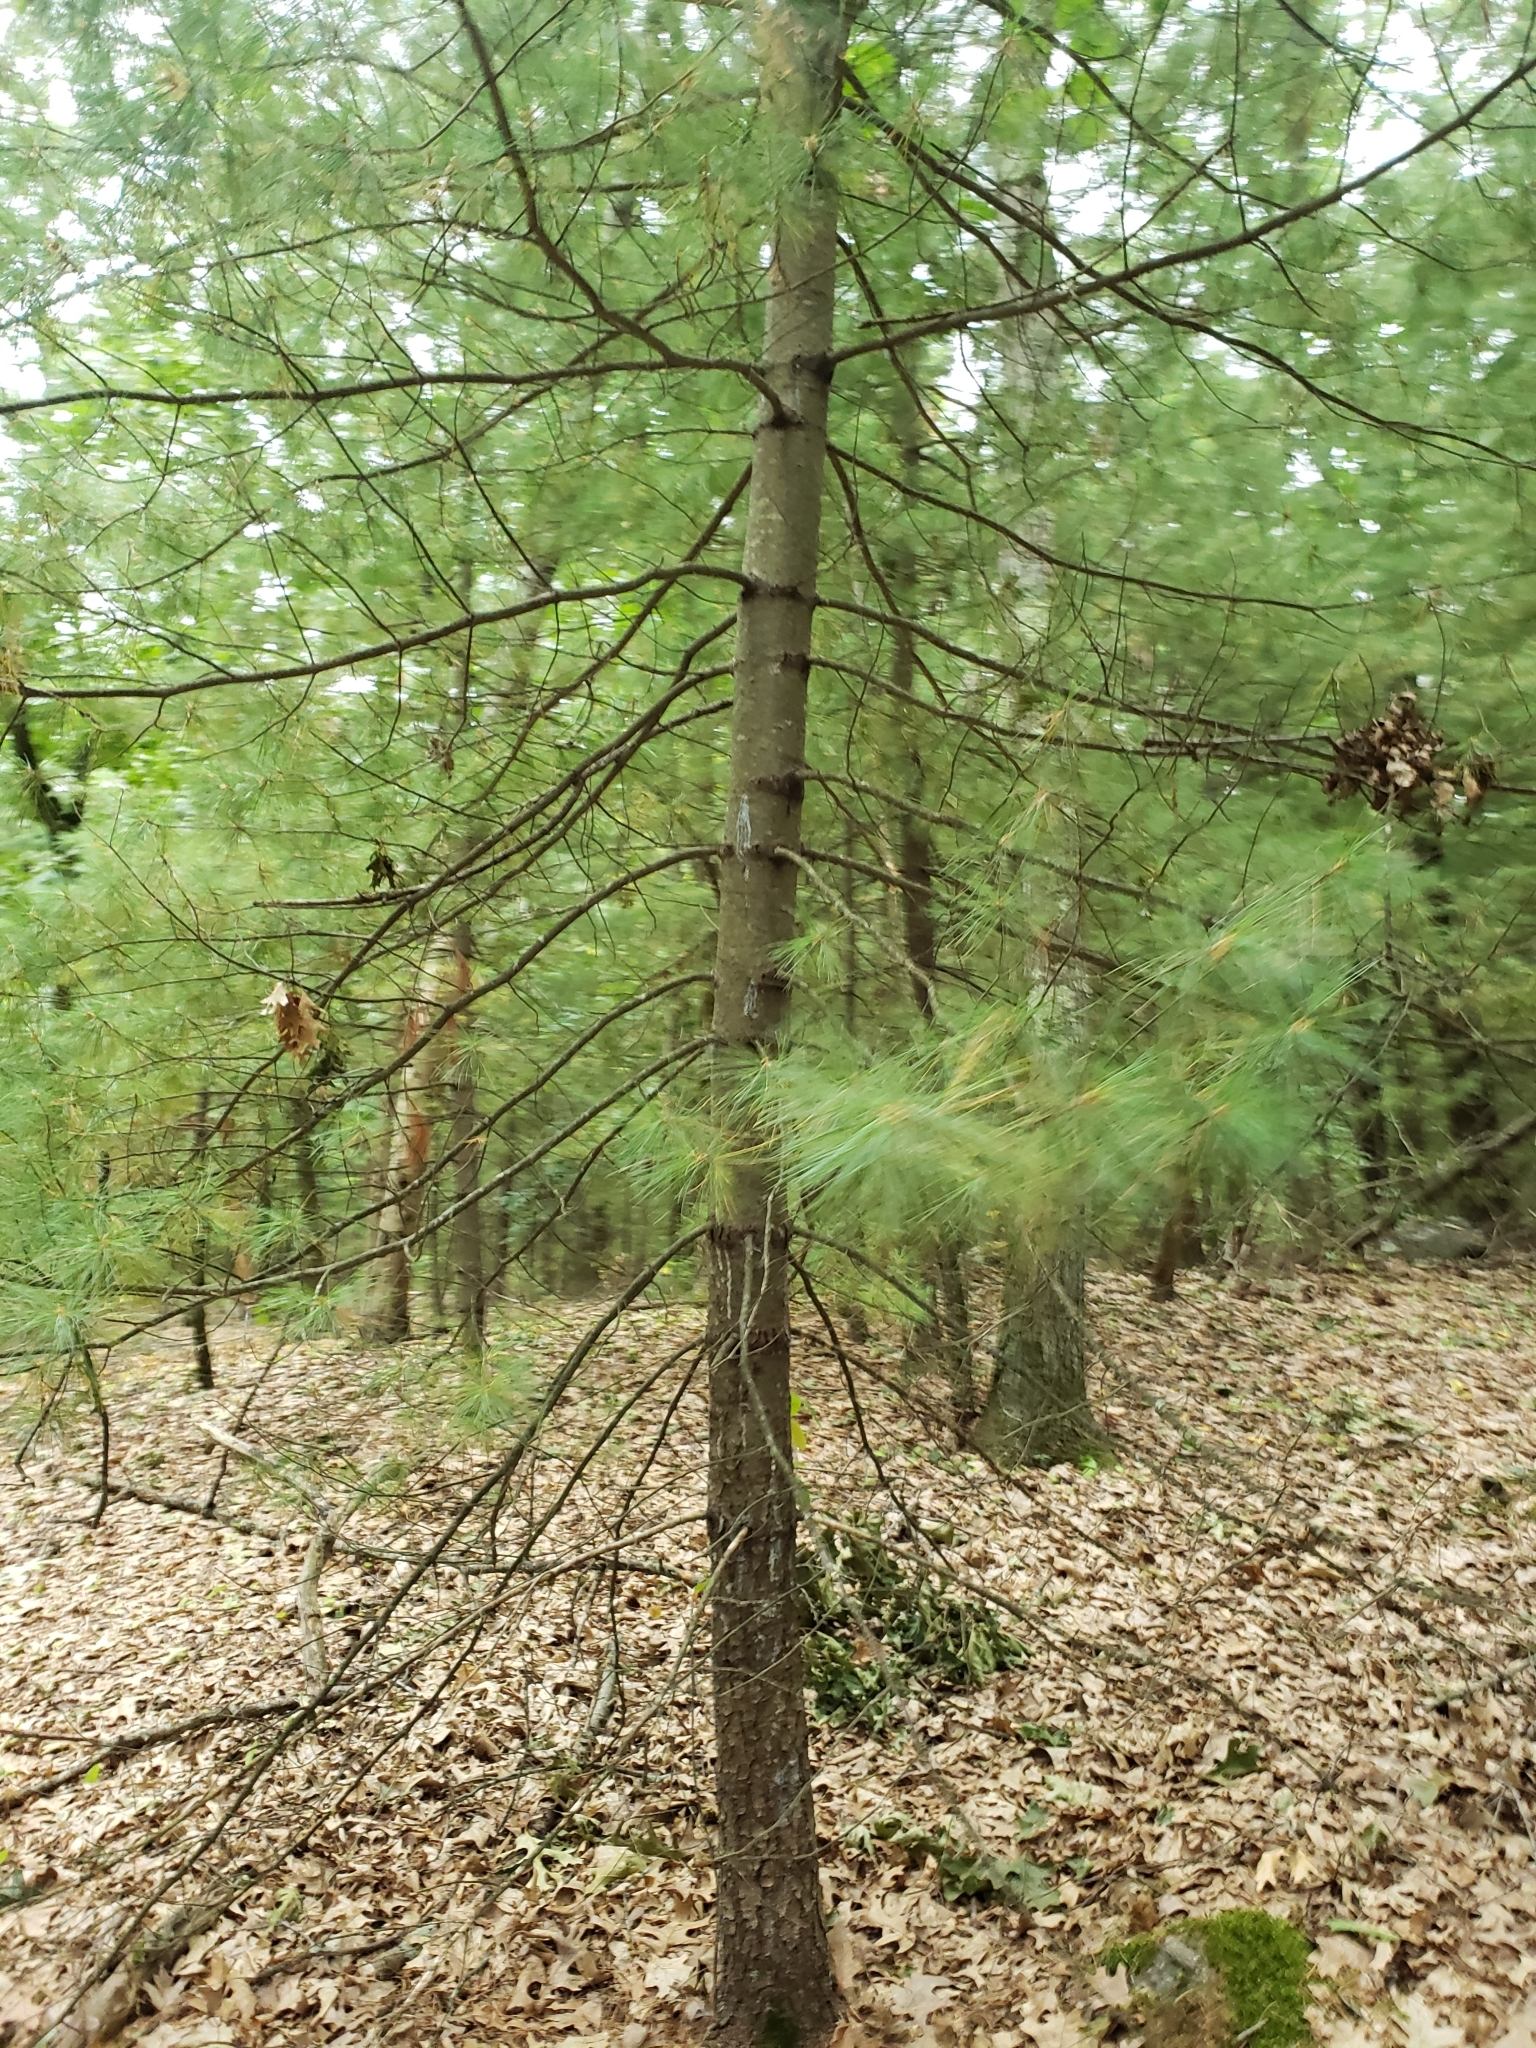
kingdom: Plantae
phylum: Tracheophyta
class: Pinopsida
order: Pinales
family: Pinaceae
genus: Pinus
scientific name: Pinus strobus
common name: Weymouth pine
